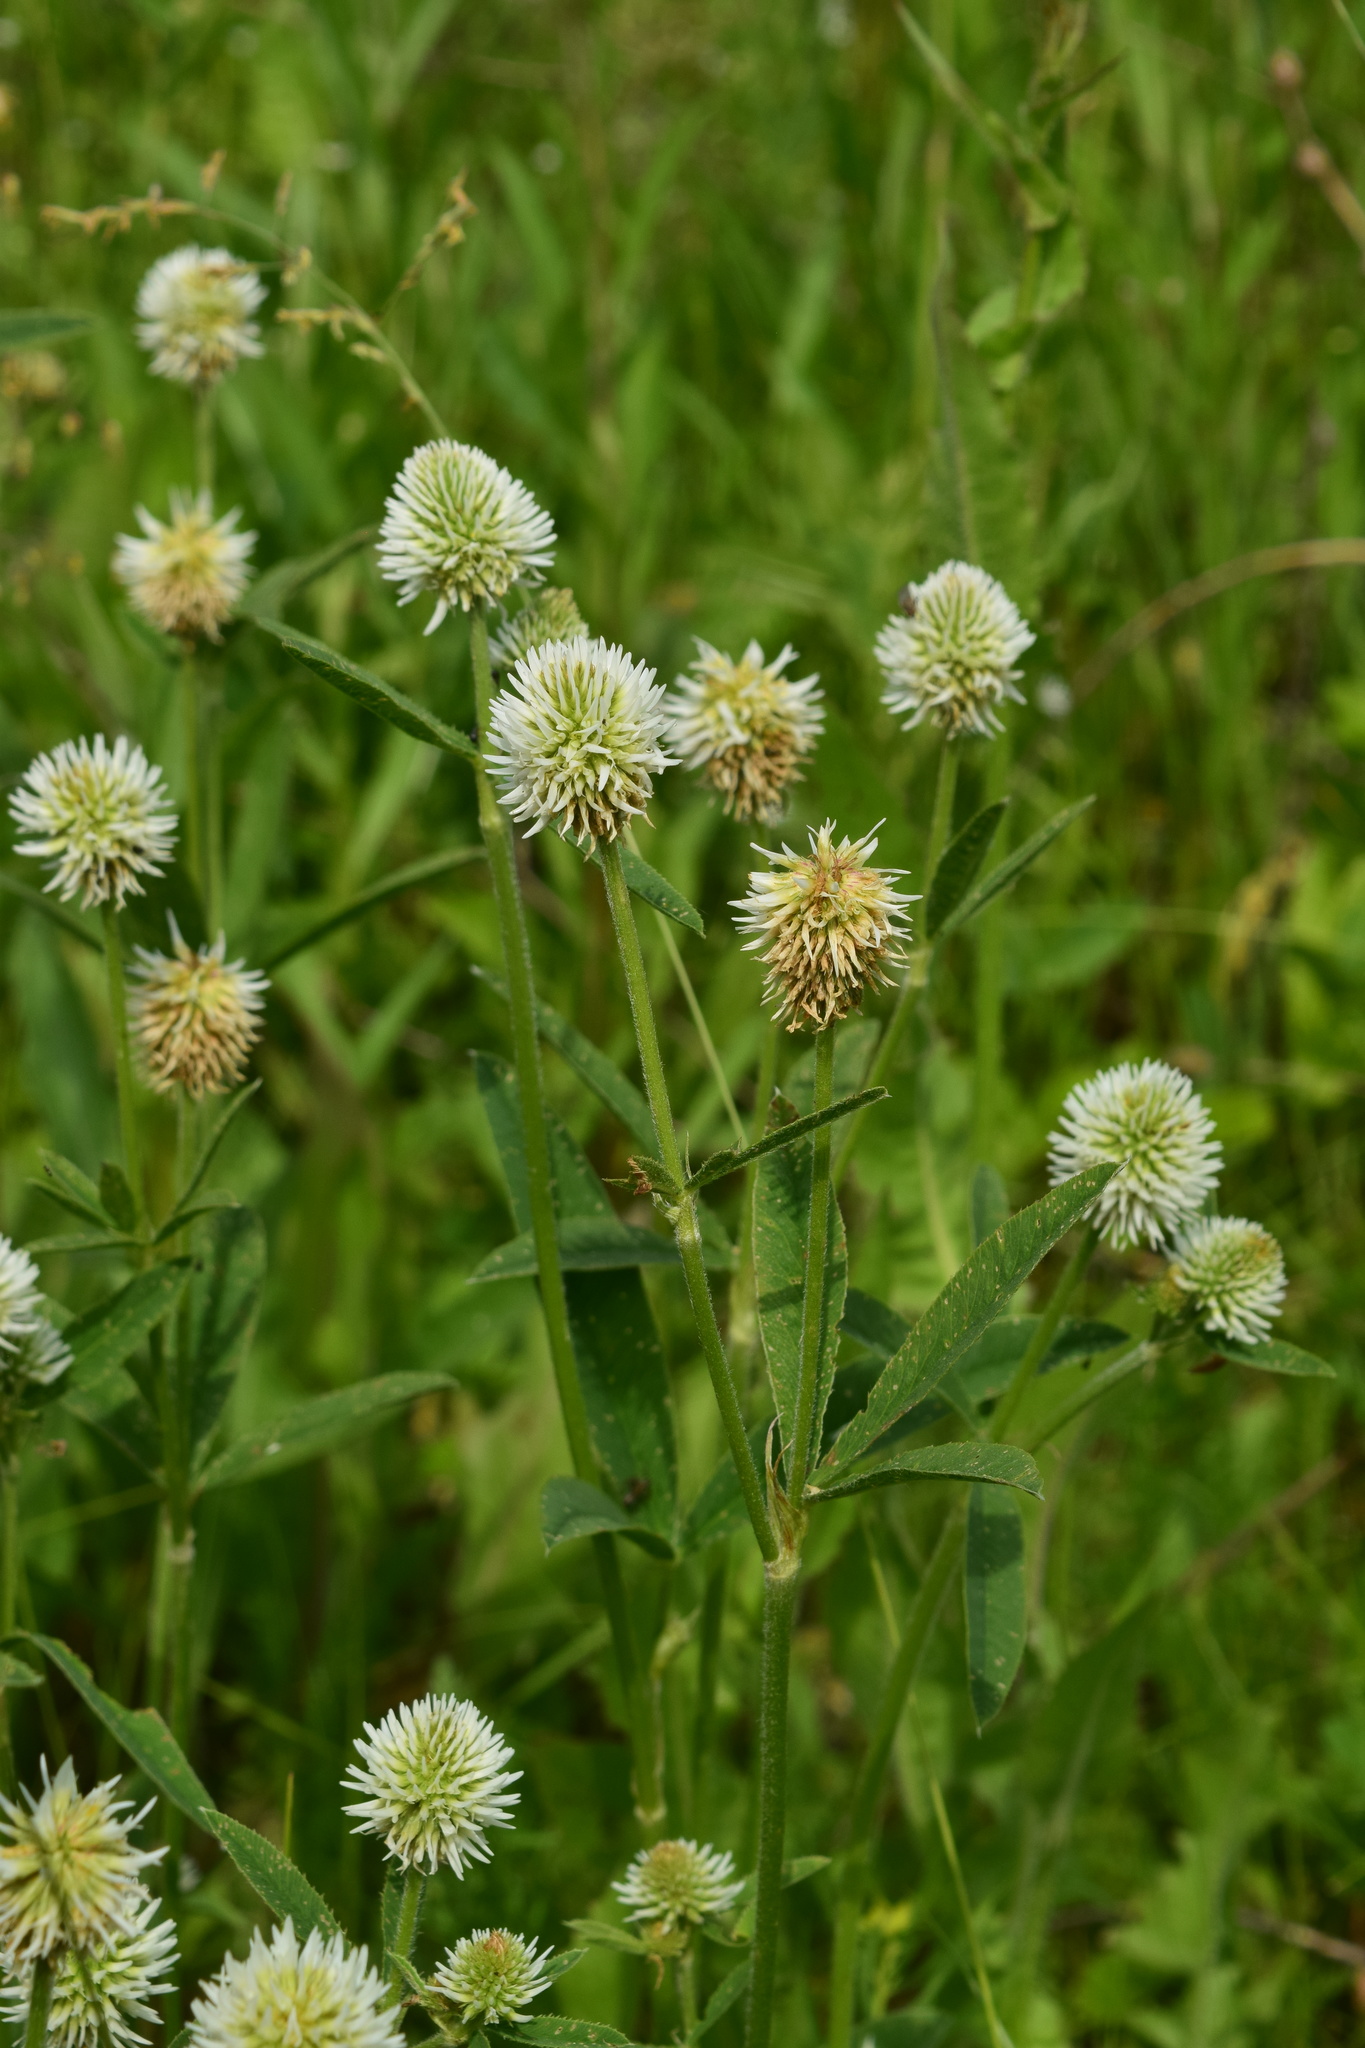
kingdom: Plantae
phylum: Tracheophyta
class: Magnoliopsida
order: Fabales
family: Fabaceae
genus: Trifolium
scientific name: Trifolium montanum
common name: Mountain clover
